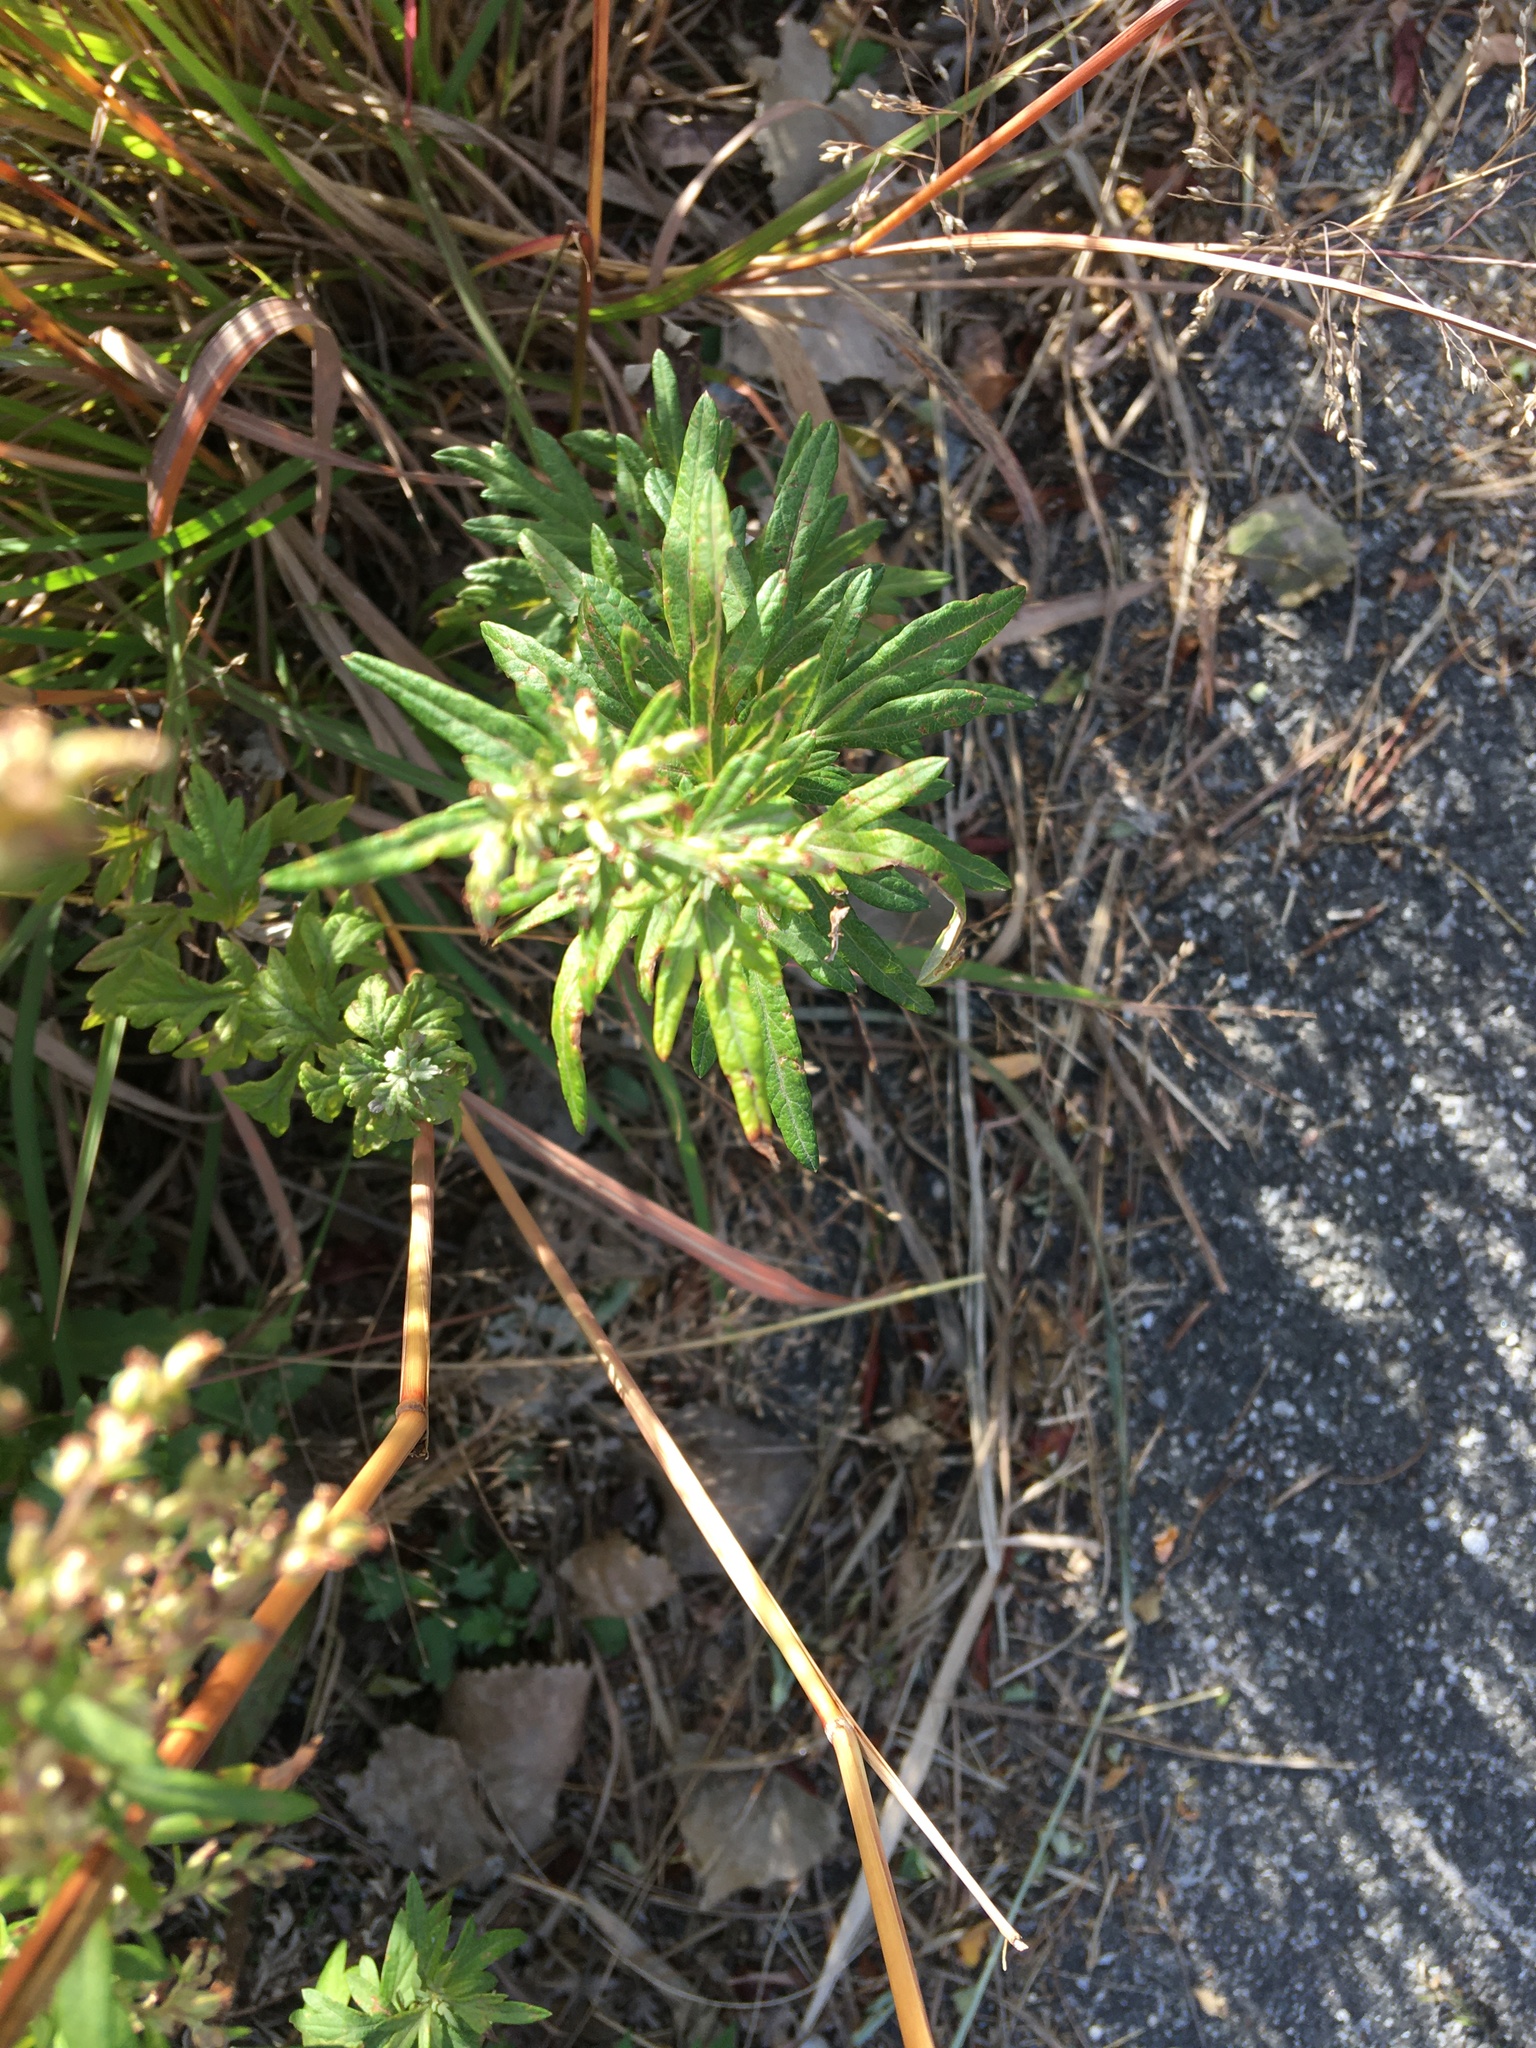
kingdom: Plantae
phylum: Tracheophyta
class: Magnoliopsida
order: Asterales
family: Asteraceae
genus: Artemisia
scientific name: Artemisia vulgaris
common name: Mugwort
